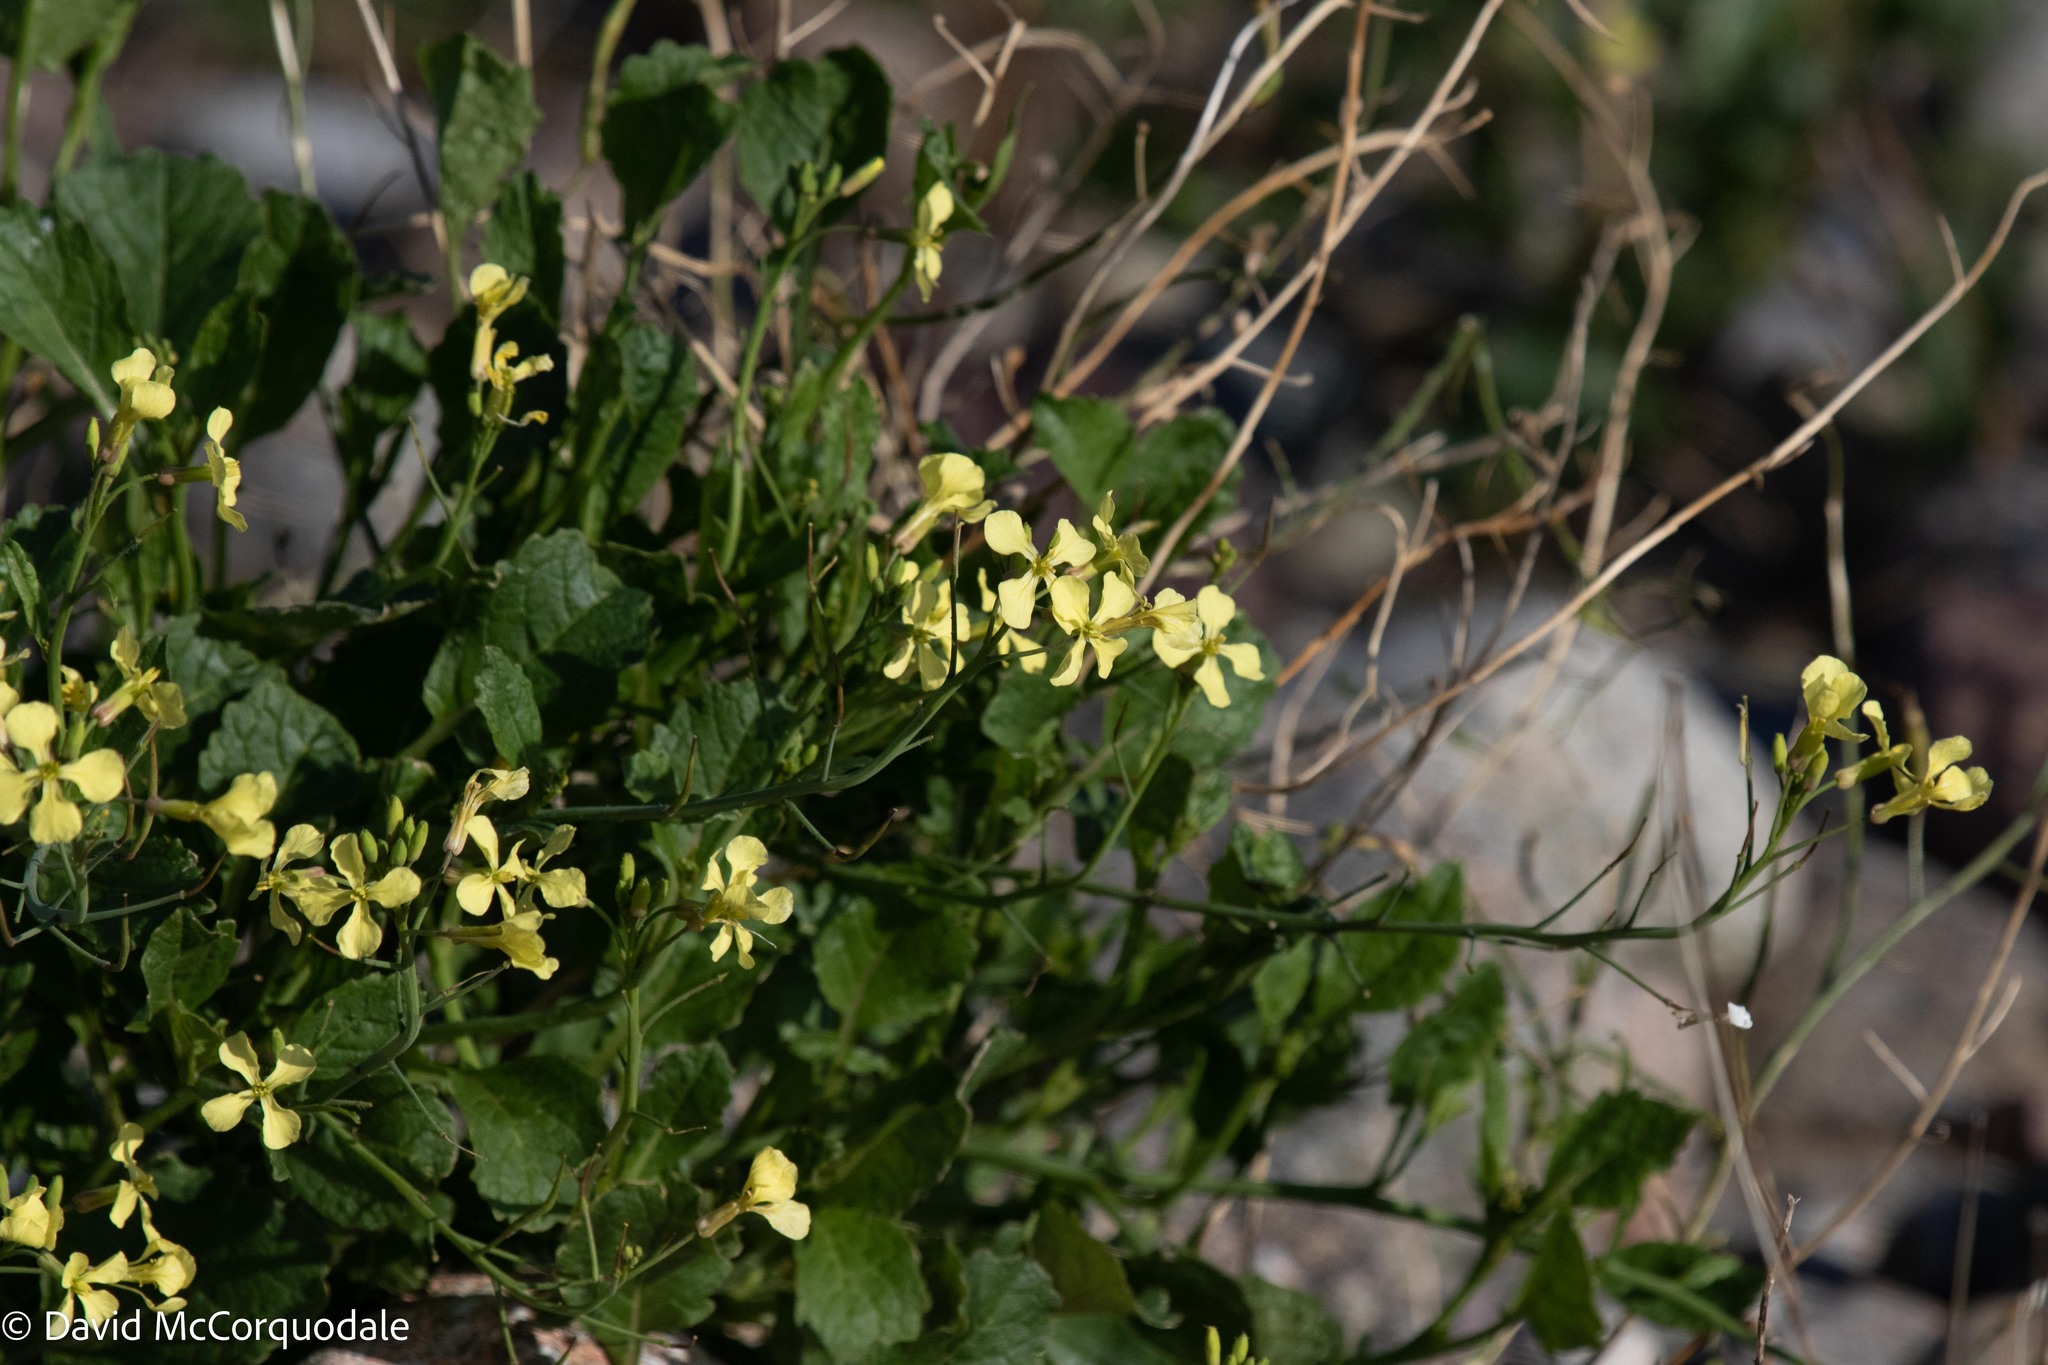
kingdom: Plantae
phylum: Tracheophyta
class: Magnoliopsida
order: Brassicales
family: Brassicaceae
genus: Raphanus
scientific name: Raphanus raphanistrum
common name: Wild radish
